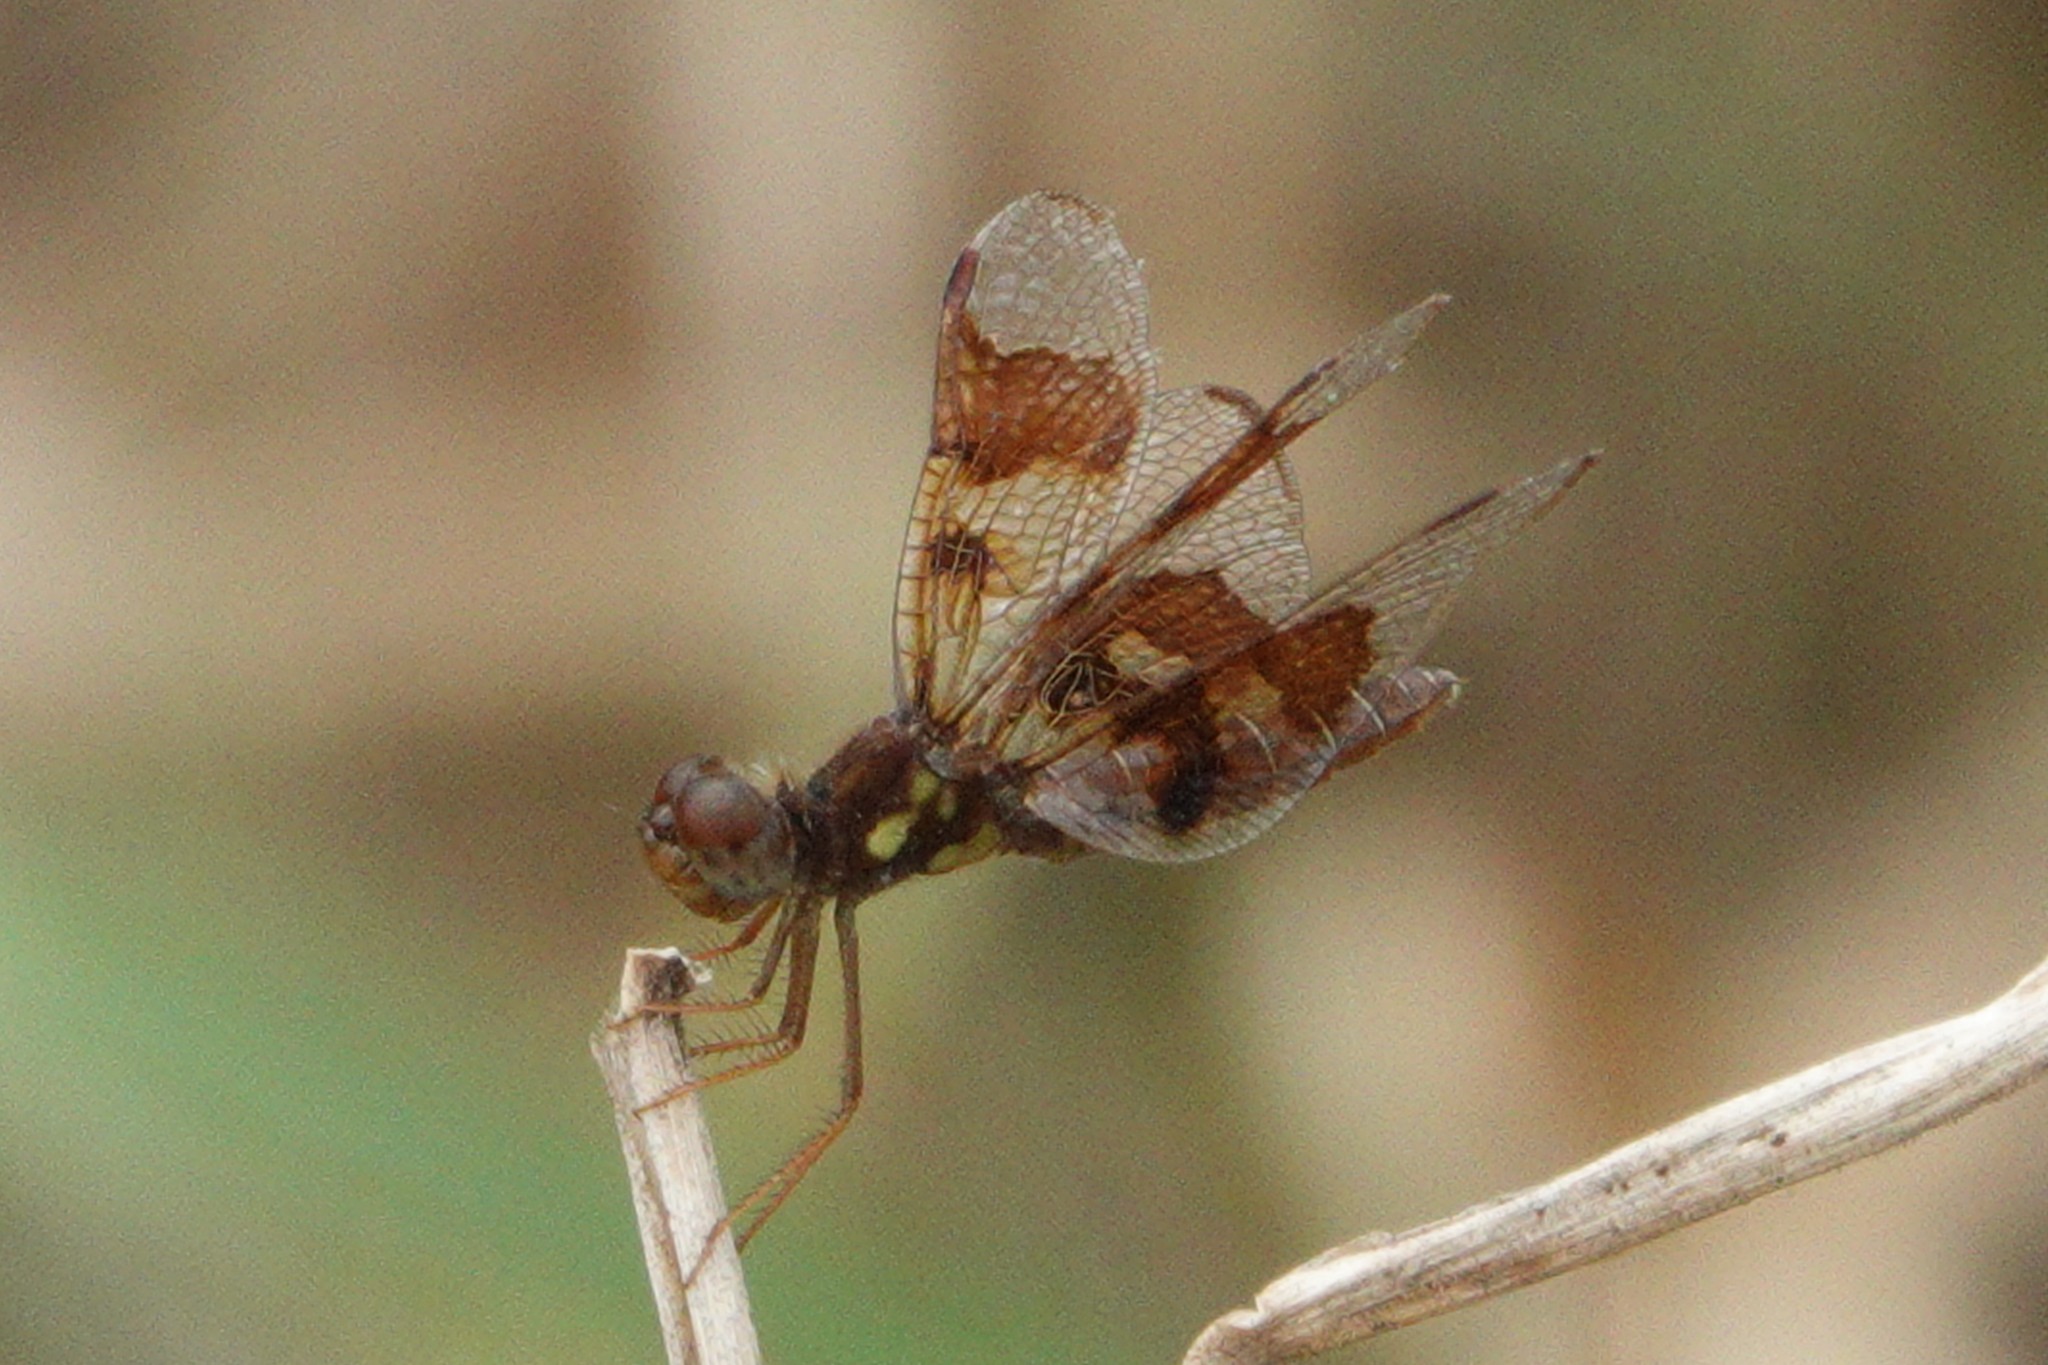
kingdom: Animalia
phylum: Arthropoda
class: Insecta
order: Odonata
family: Libellulidae
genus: Perithemis
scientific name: Perithemis tenera
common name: Eastern amberwing
